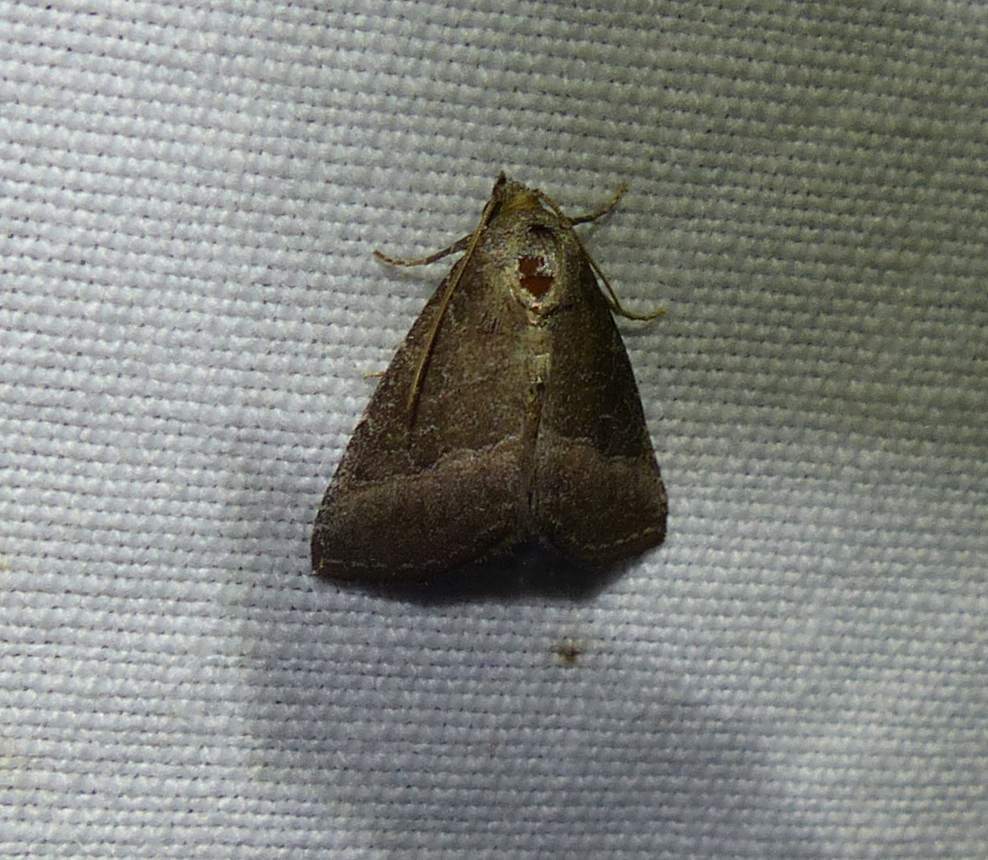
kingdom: Animalia
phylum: Arthropoda
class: Insecta
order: Lepidoptera
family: Noctuidae
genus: Ogdoconta
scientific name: Ogdoconta cinereola
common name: Common pinkband
